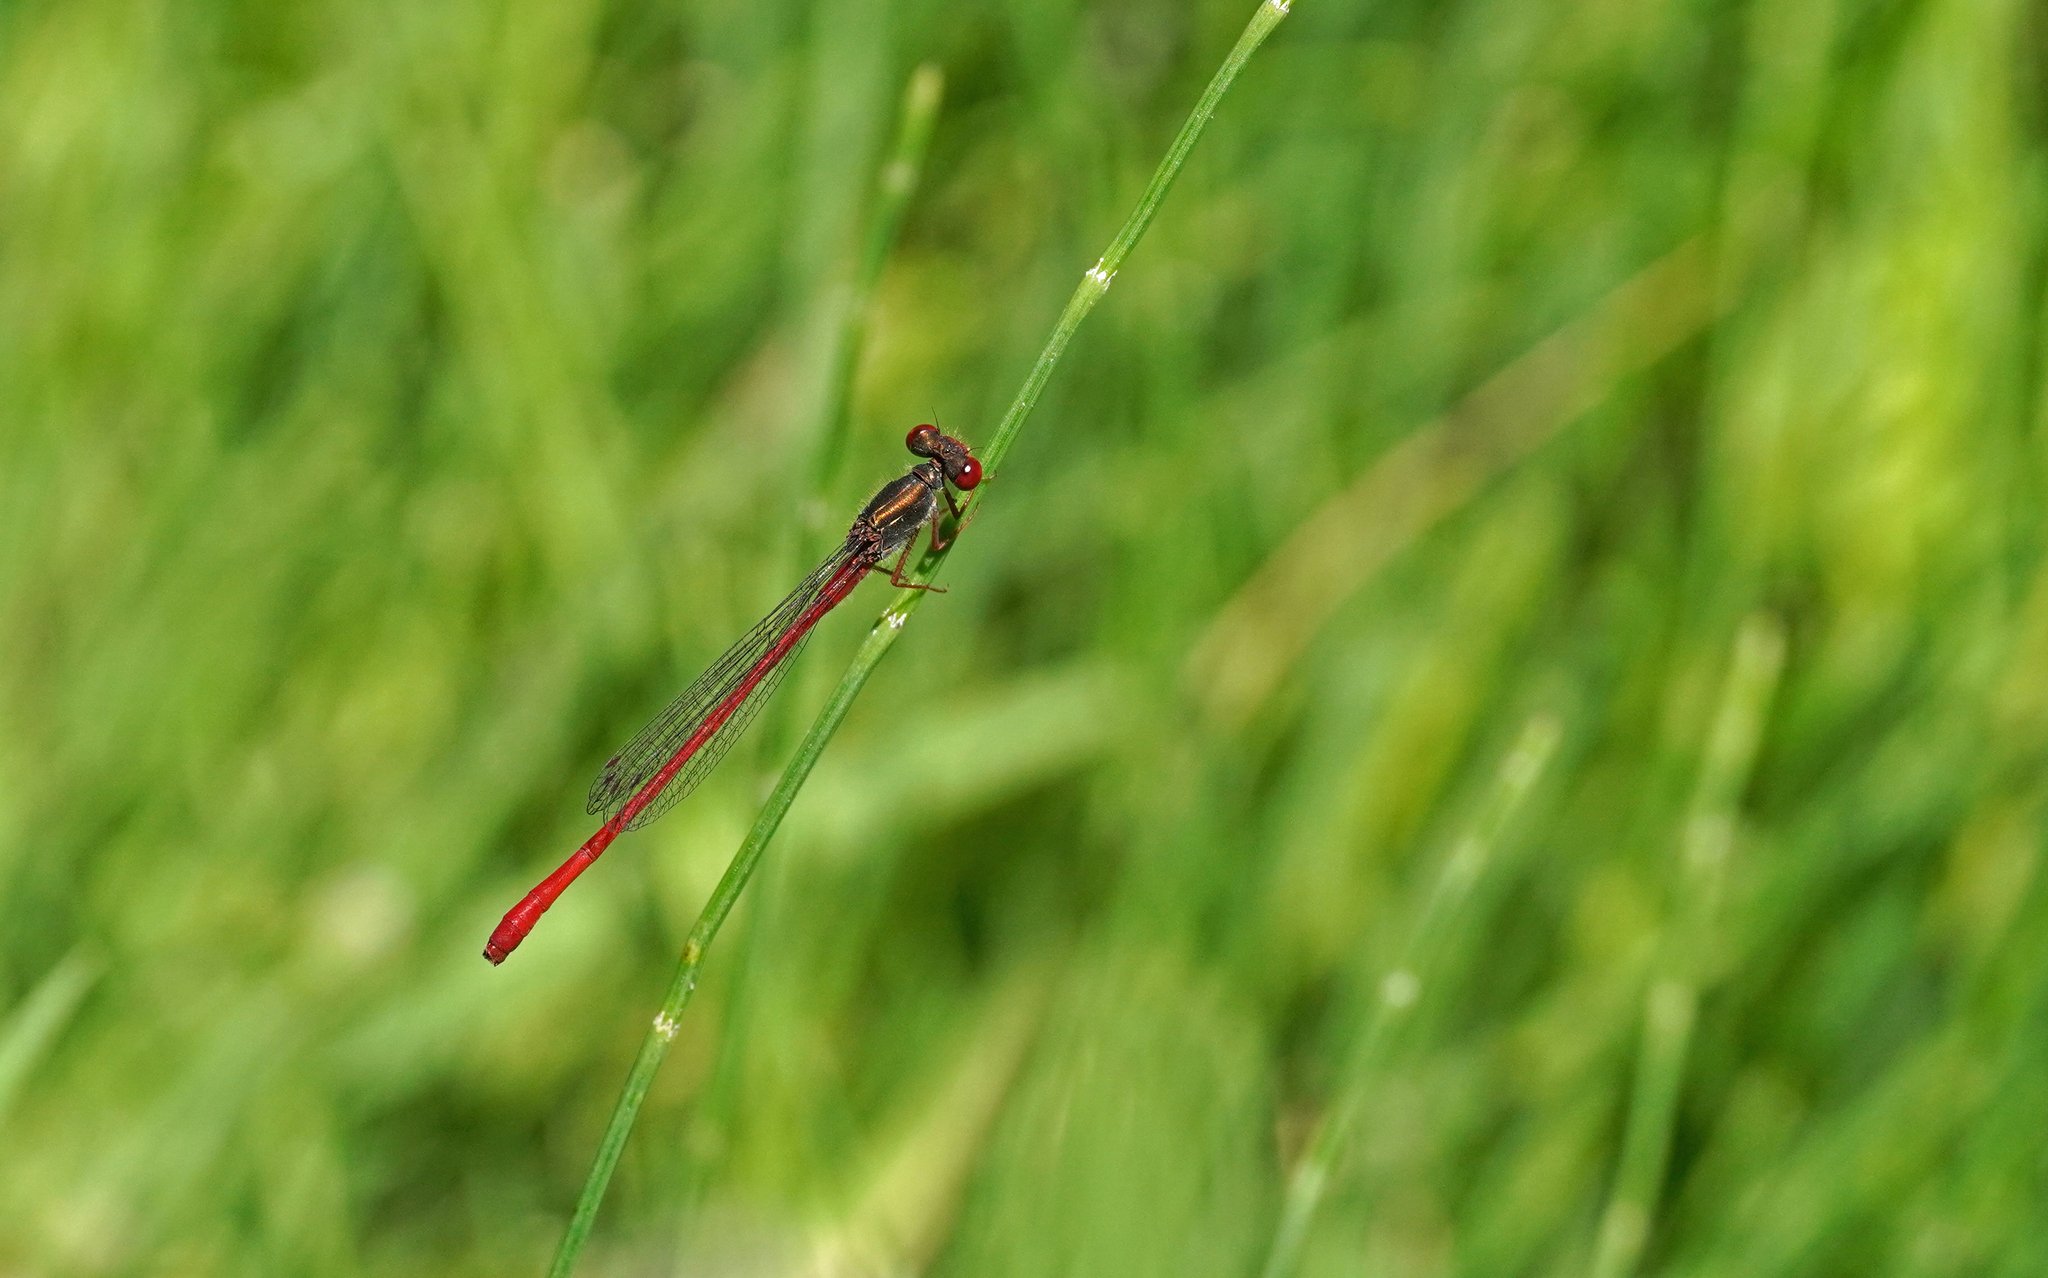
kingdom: Animalia
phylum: Arthropoda
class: Insecta
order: Odonata
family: Coenagrionidae
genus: Ceriagrion
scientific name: Ceriagrion tenellum
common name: Small red damselfly
